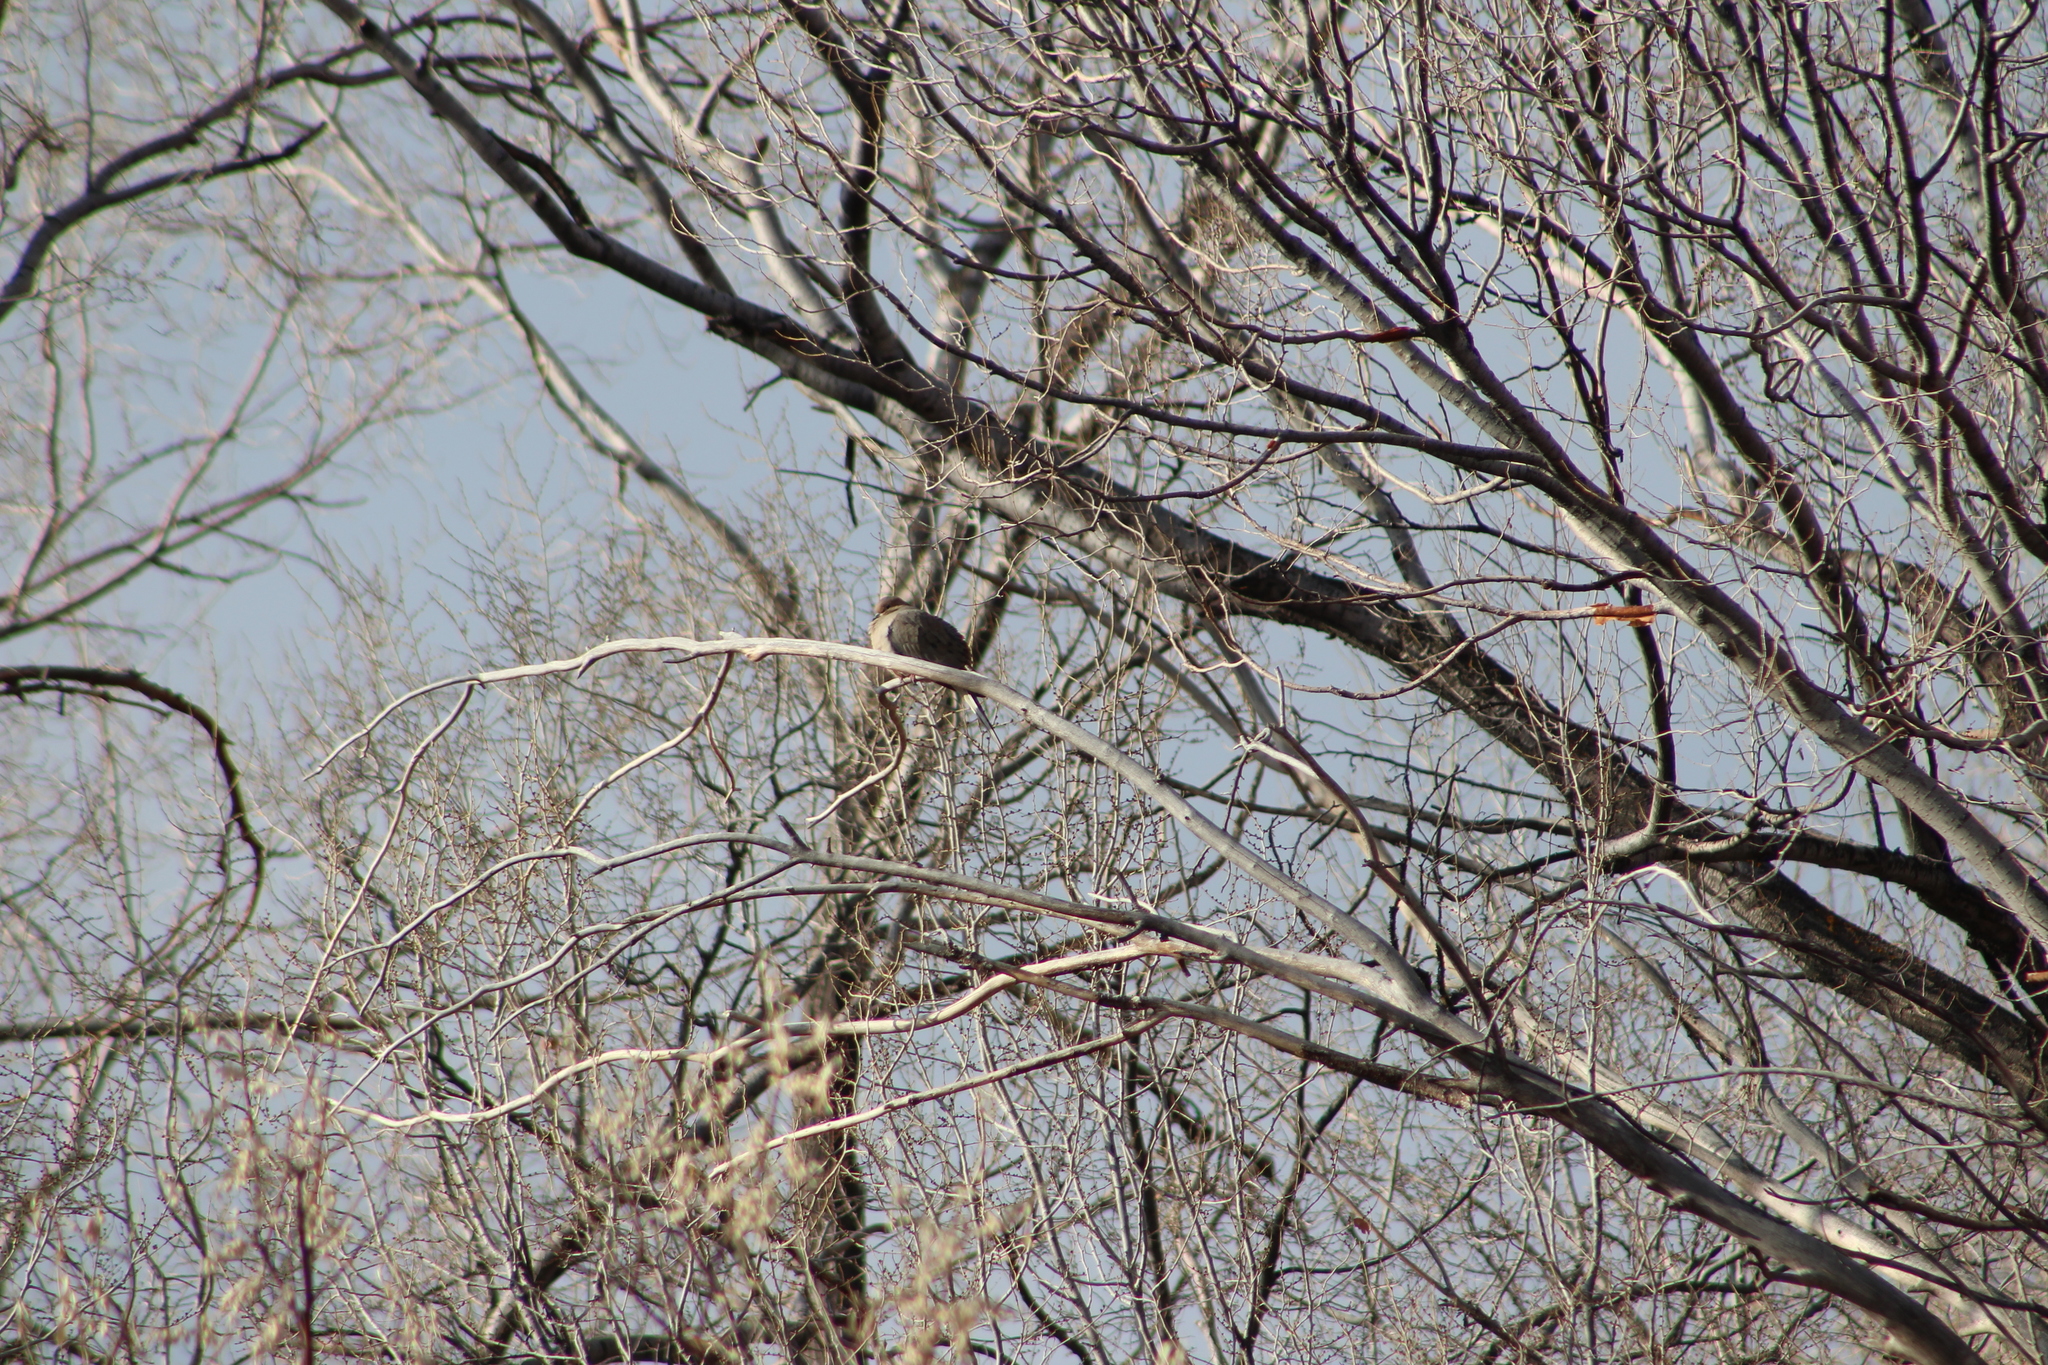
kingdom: Animalia
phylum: Chordata
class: Aves
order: Columbiformes
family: Columbidae
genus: Zenaida
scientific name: Zenaida macroura
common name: Mourning dove
